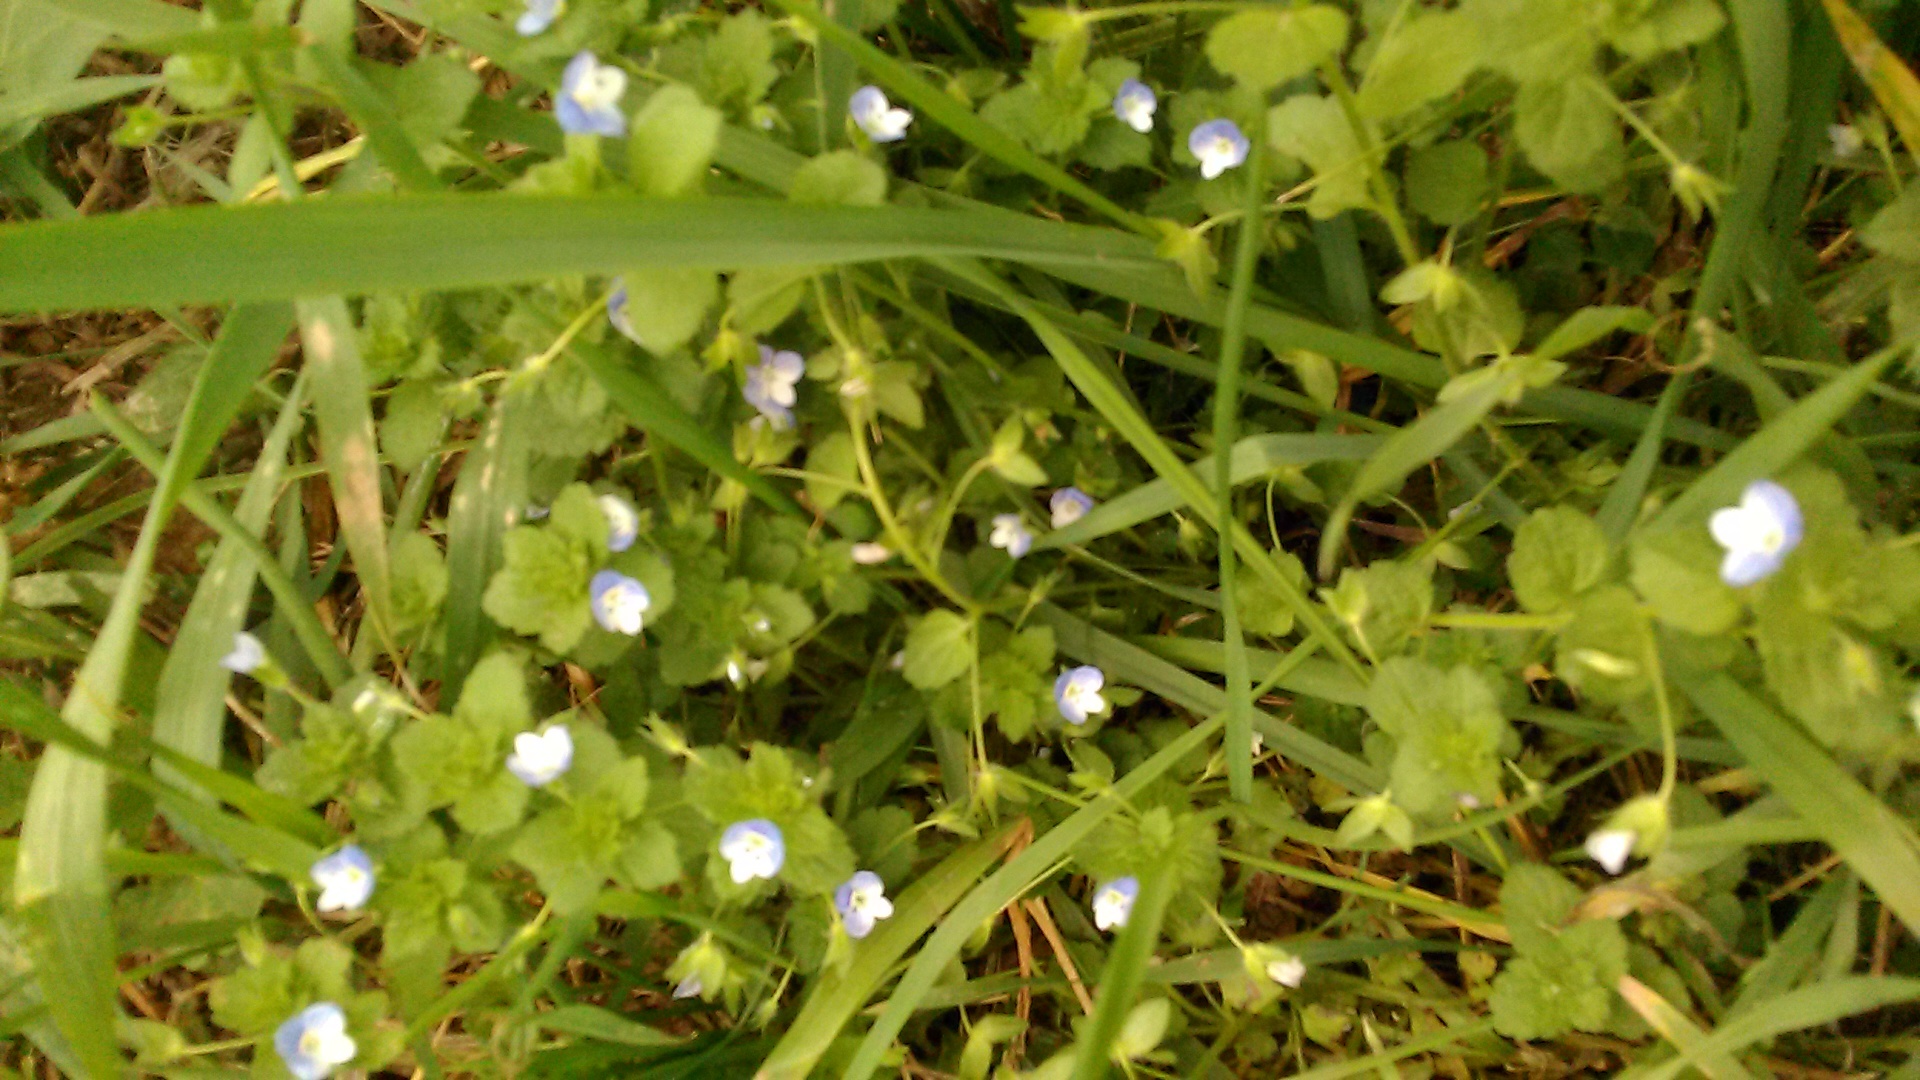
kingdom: Plantae
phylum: Tracheophyta
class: Magnoliopsida
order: Lamiales
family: Plantaginaceae
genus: Veronica
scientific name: Veronica persica
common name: Common field-speedwell
